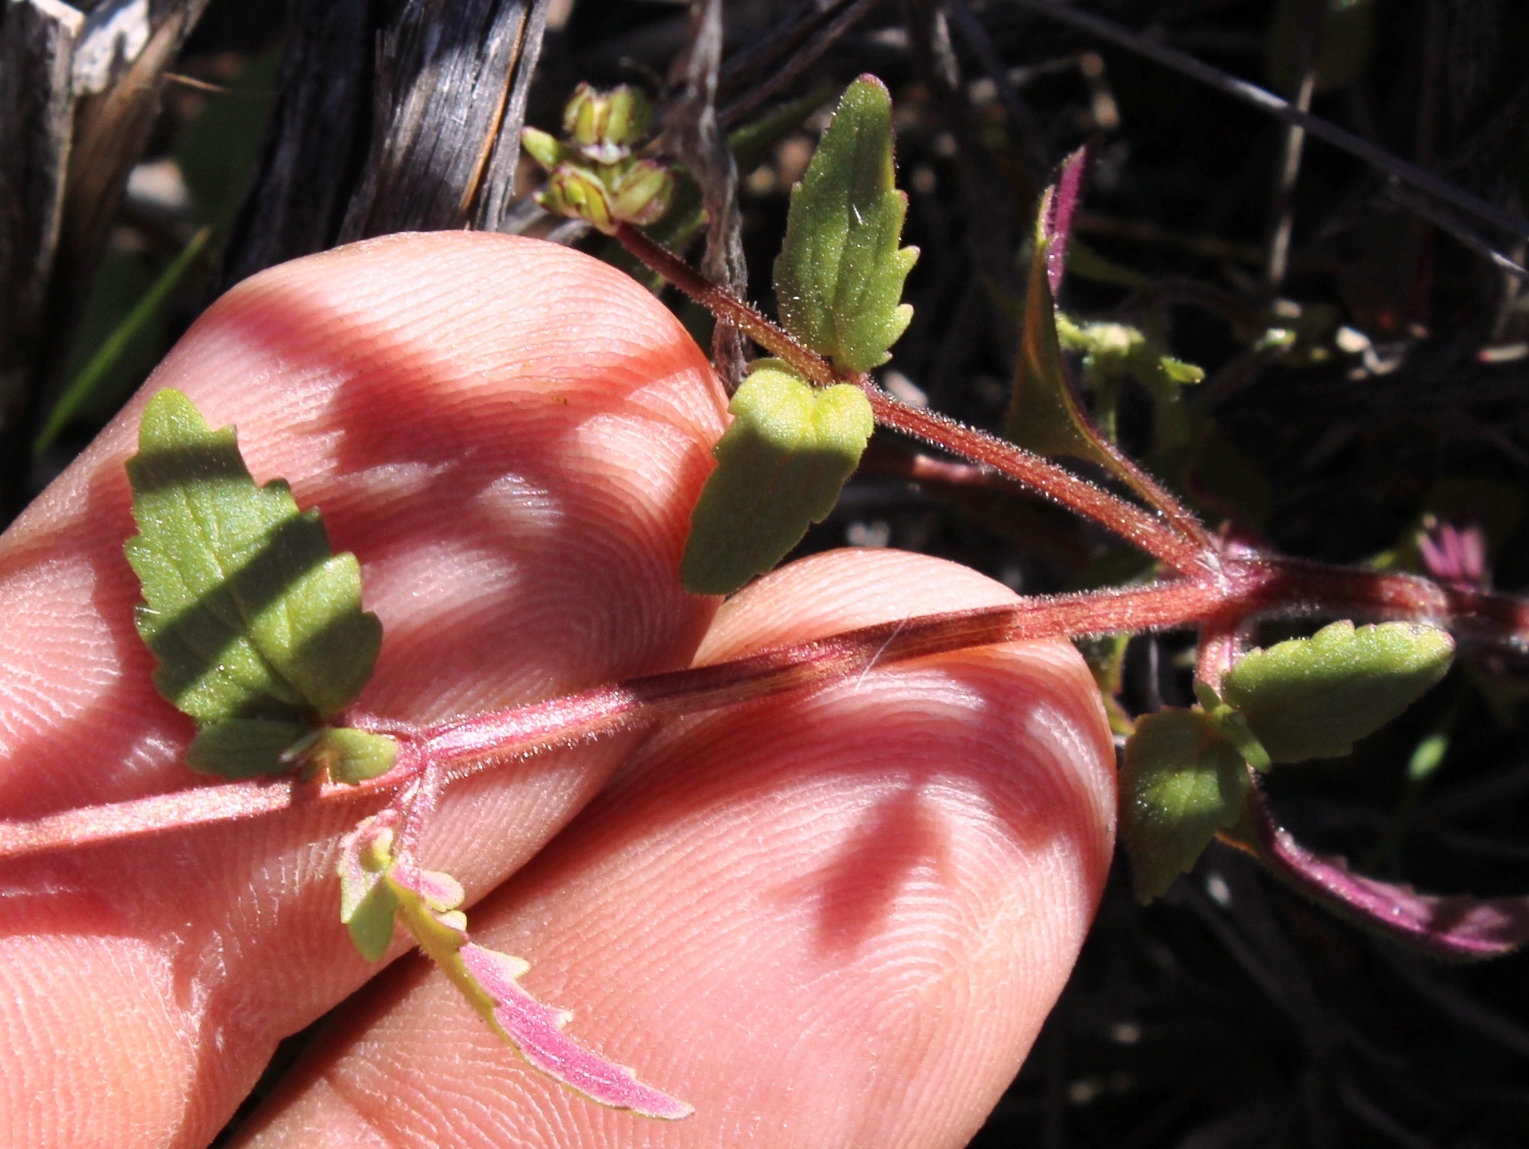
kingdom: Plantae
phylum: Tracheophyta
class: Magnoliopsida
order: Lamiales
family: Scrophulariaceae
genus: Hemimeris
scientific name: Hemimeris racemosa
